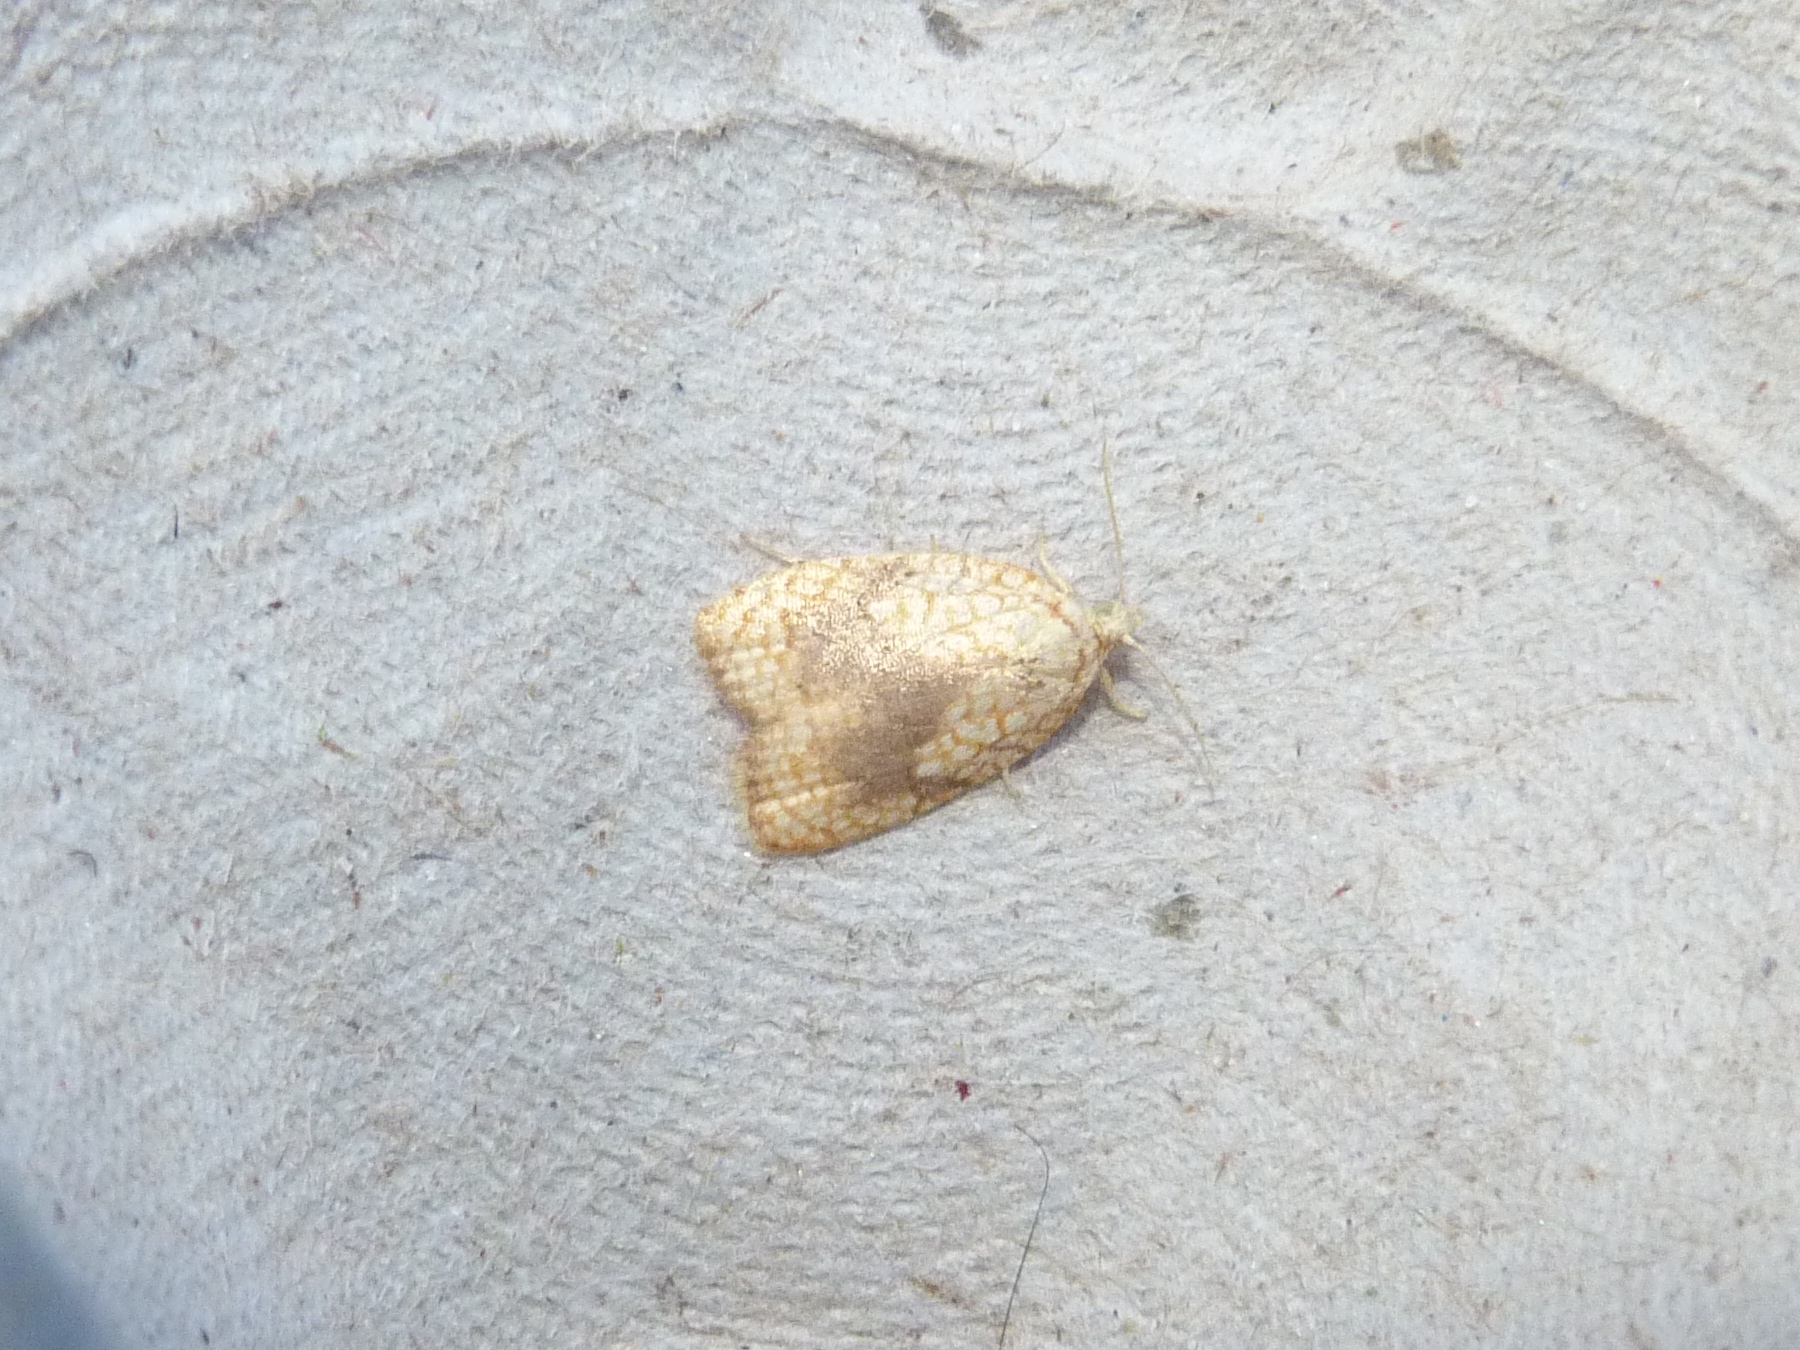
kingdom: Animalia
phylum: Arthropoda
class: Insecta
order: Lepidoptera
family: Tortricidae
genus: Acleris
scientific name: Acleris forsskaleana
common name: Maple button
